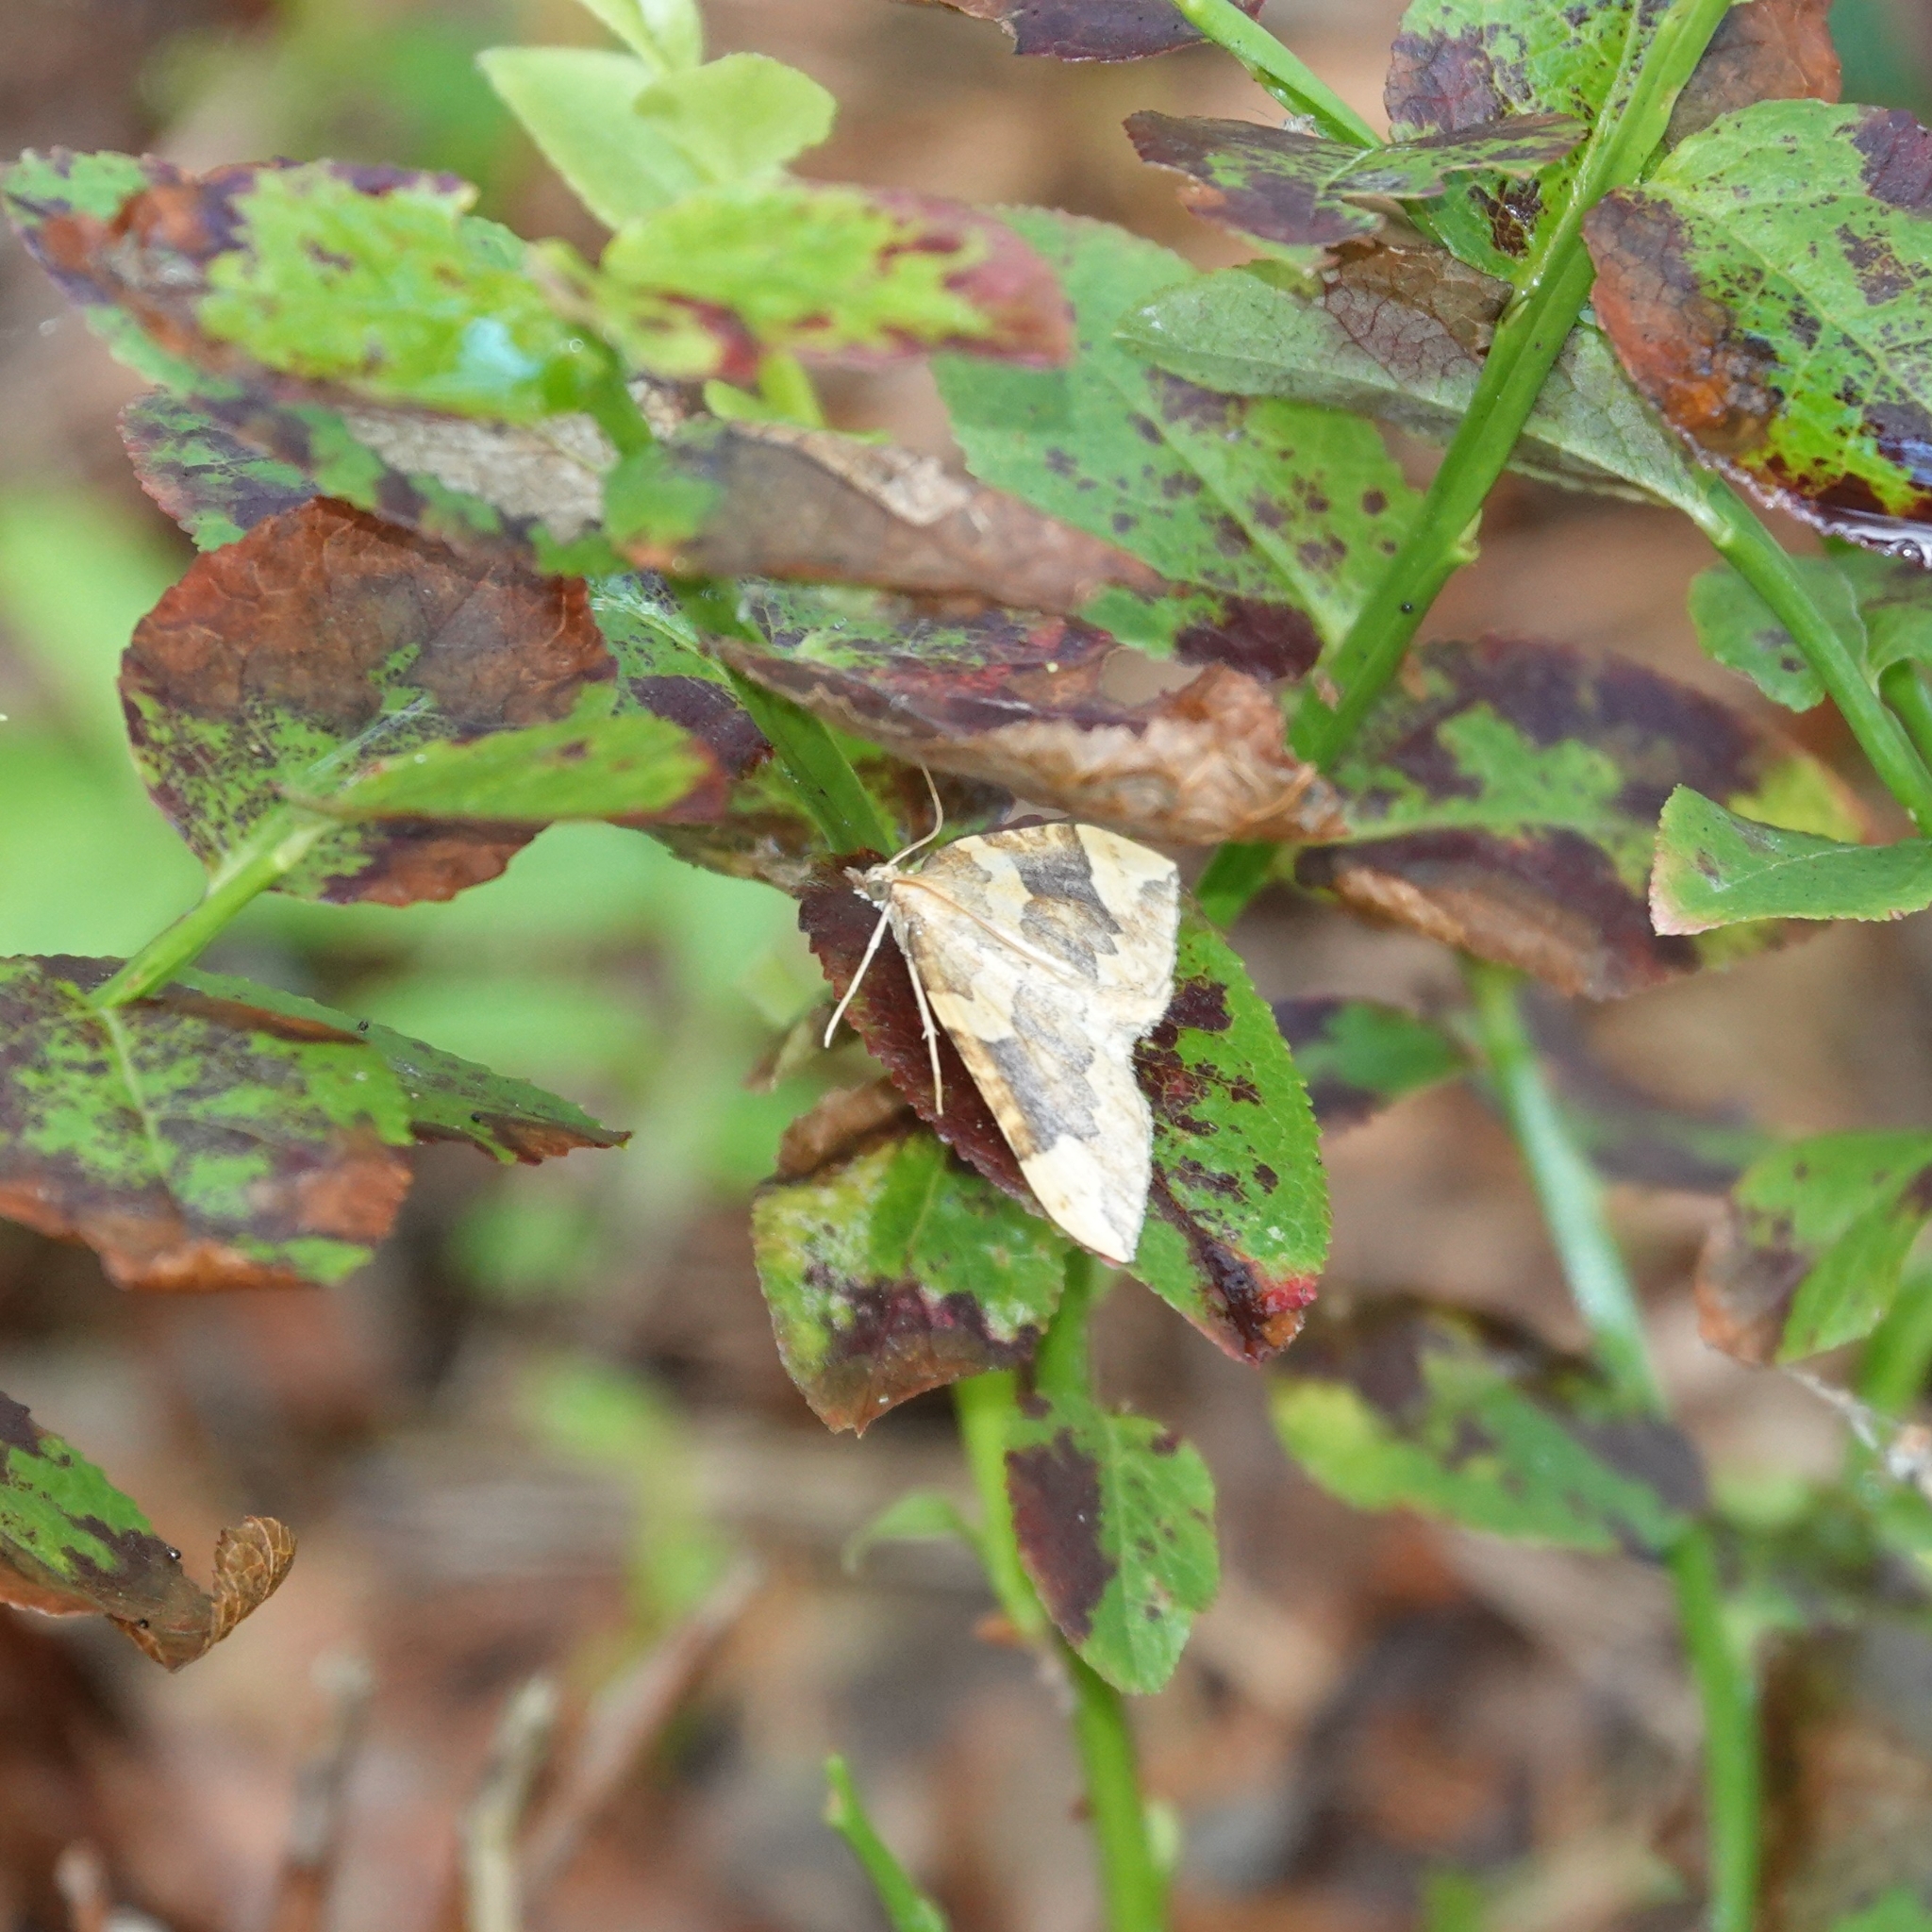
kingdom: Animalia
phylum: Arthropoda
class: Insecta
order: Lepidoptera
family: Geometridae
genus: Eulithis
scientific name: Eulithis populata
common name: Northern spinach
